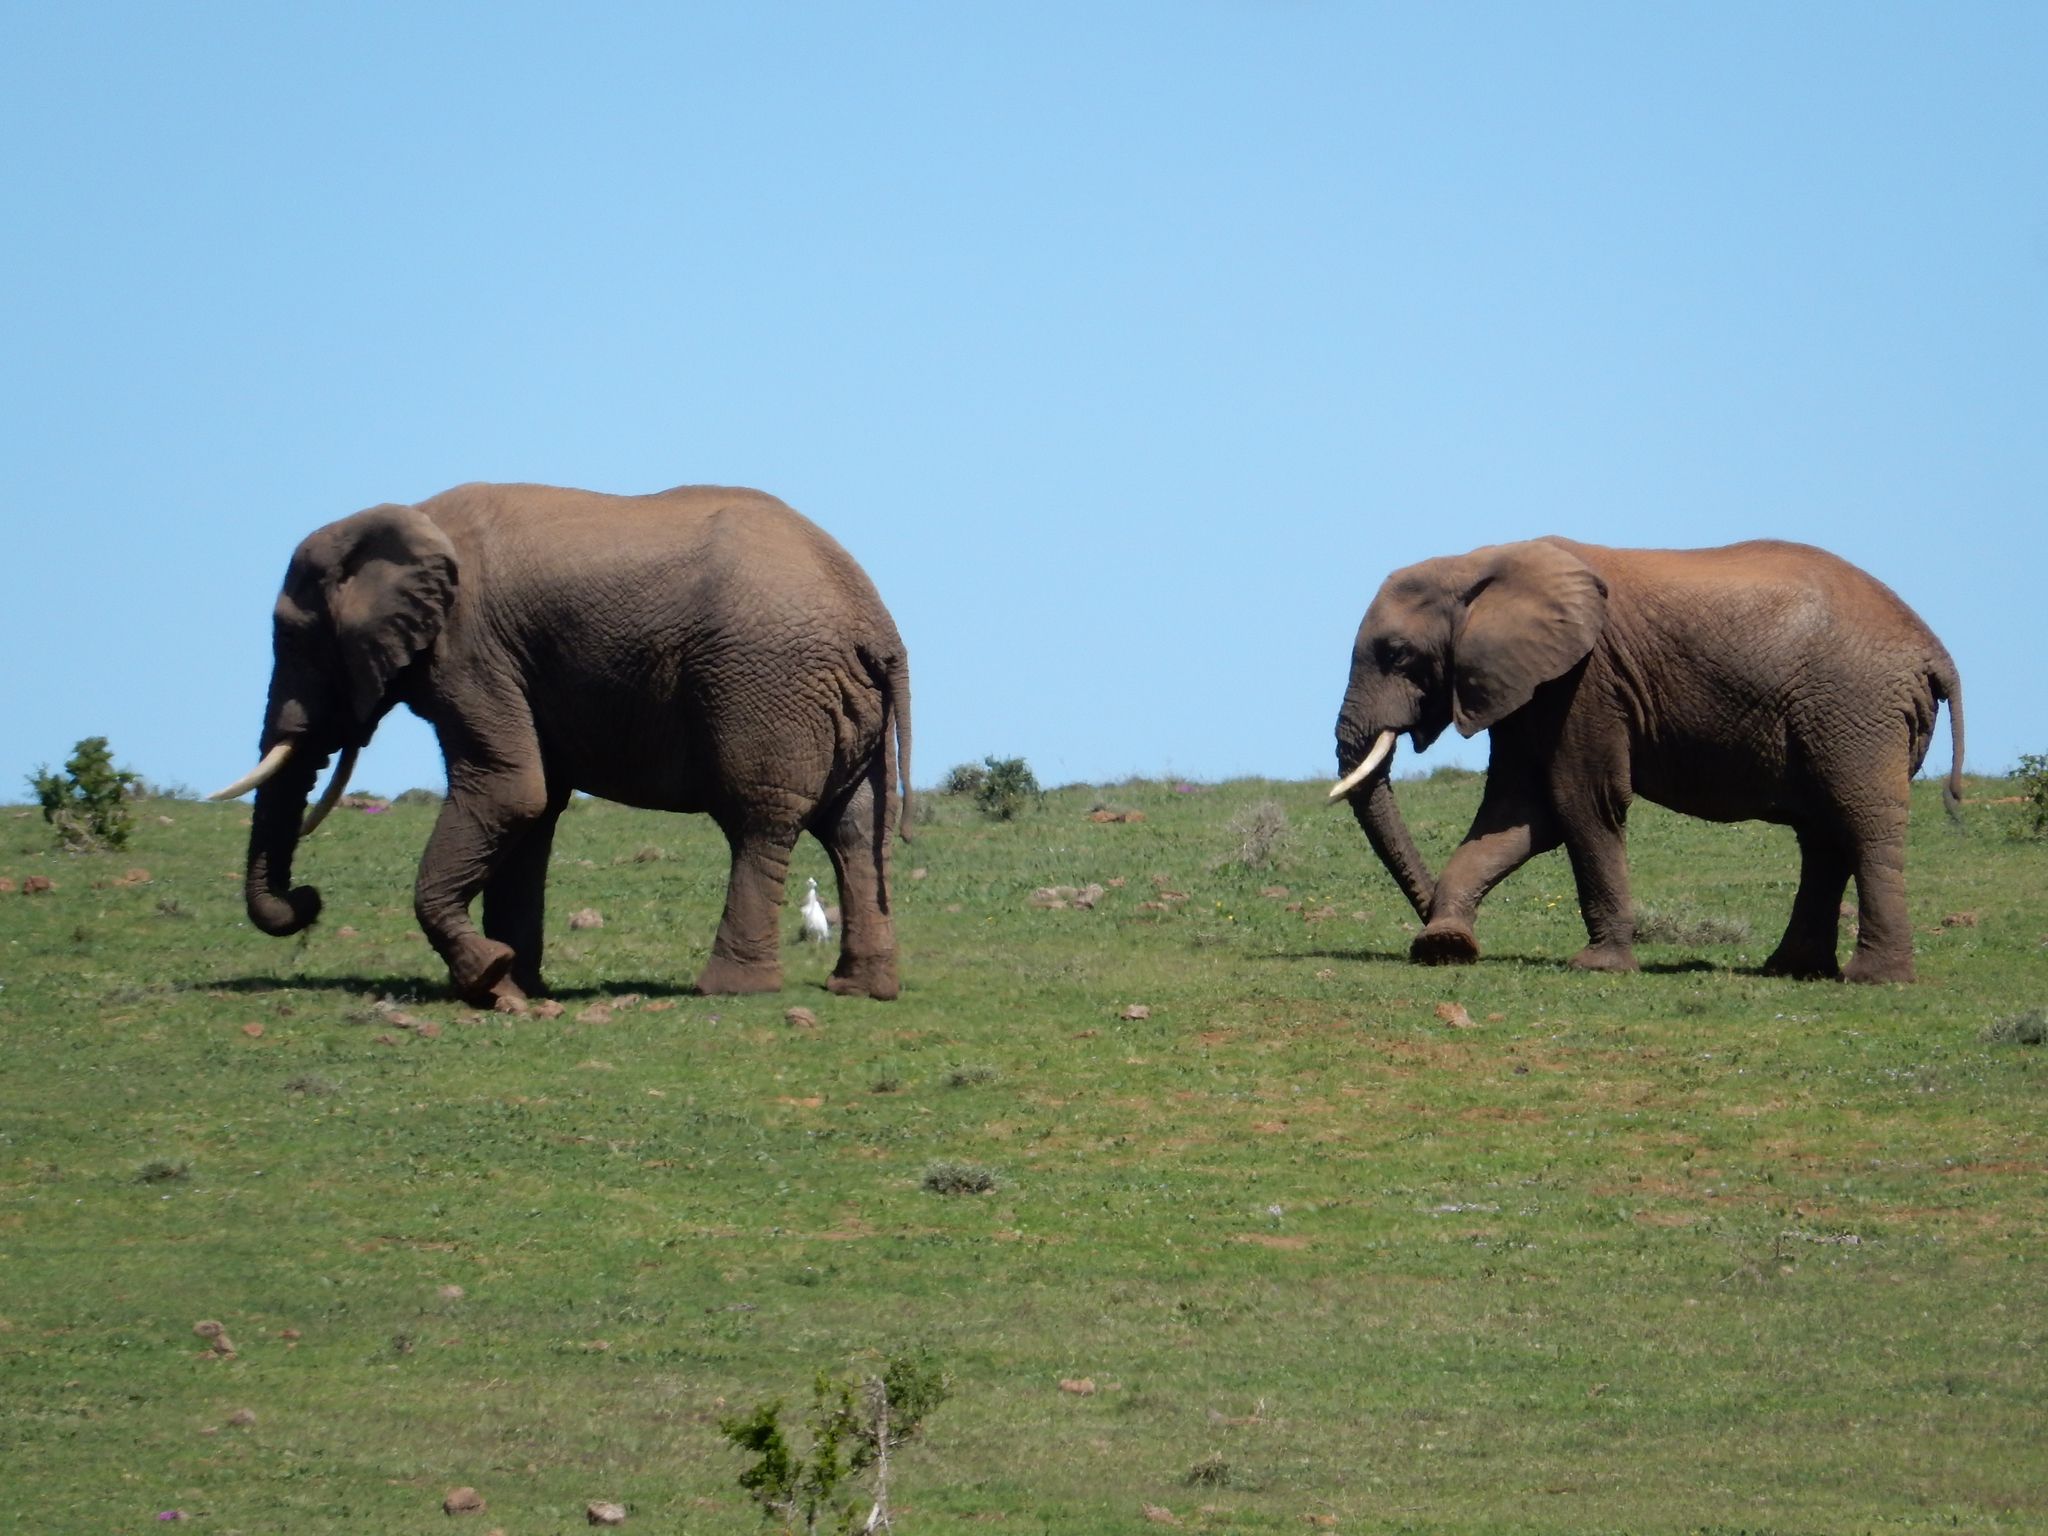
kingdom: Animalia
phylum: Chordata
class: Mammalia
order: Proboscidea
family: Elephantidae
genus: Loxodonta
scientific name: Loxodonta africana
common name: African elephant
